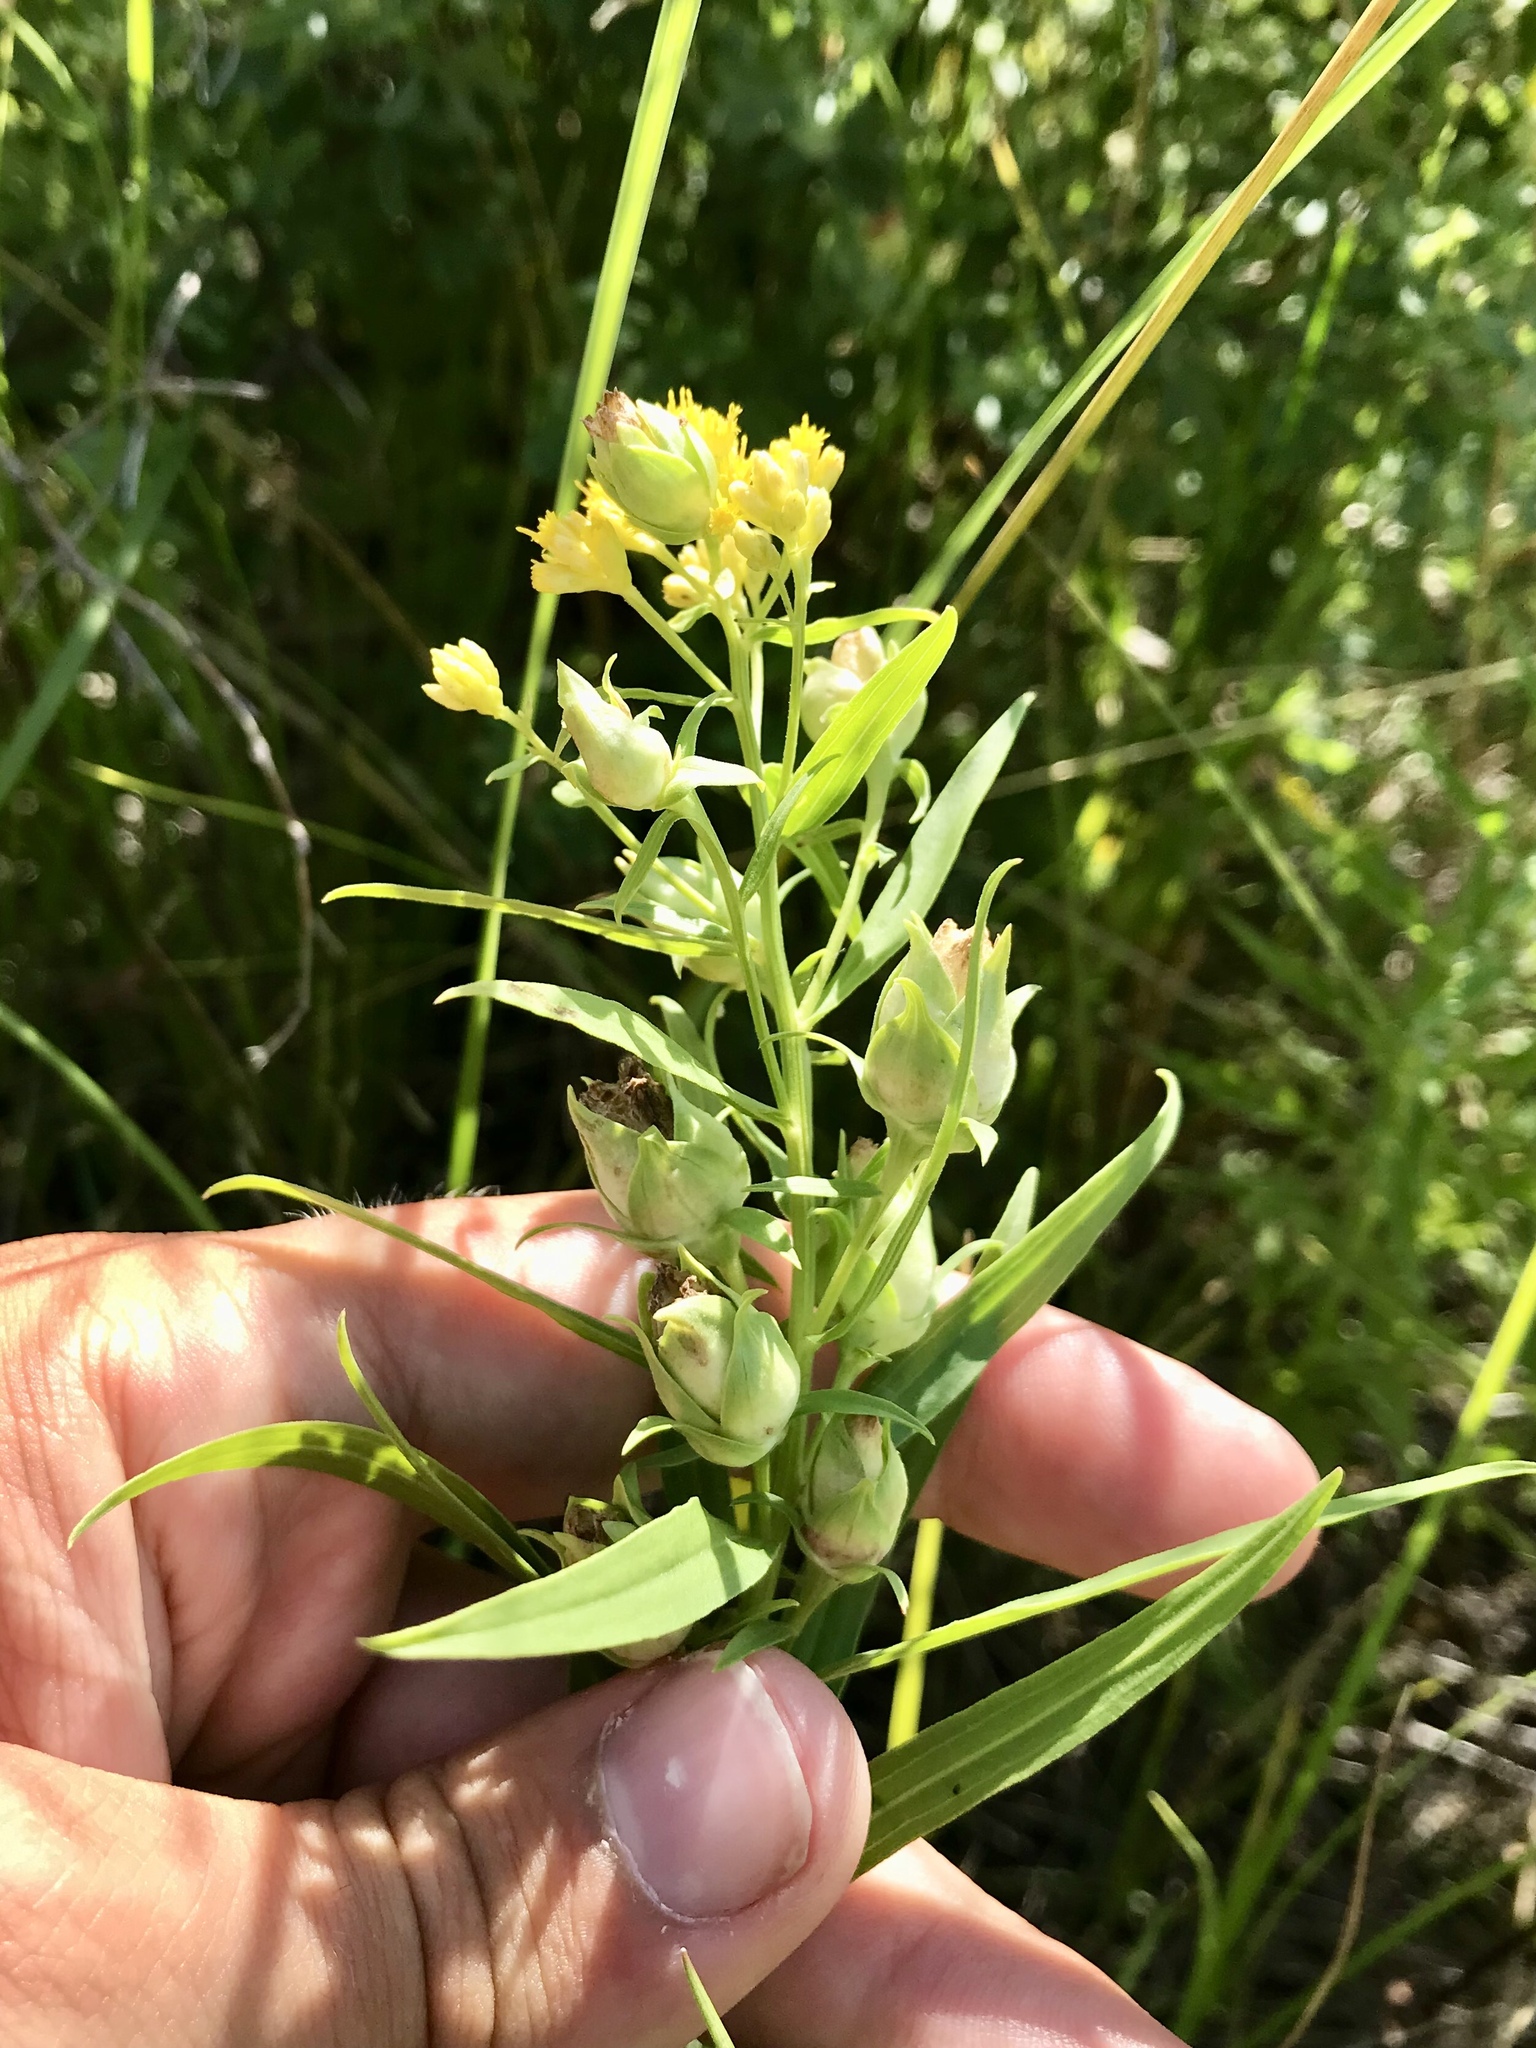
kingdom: Animalia
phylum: Arthropoda
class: Insecta
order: Diptera
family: Cecidomyiidae
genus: Rhopalomyia
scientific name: Rhopalomyia lobata
